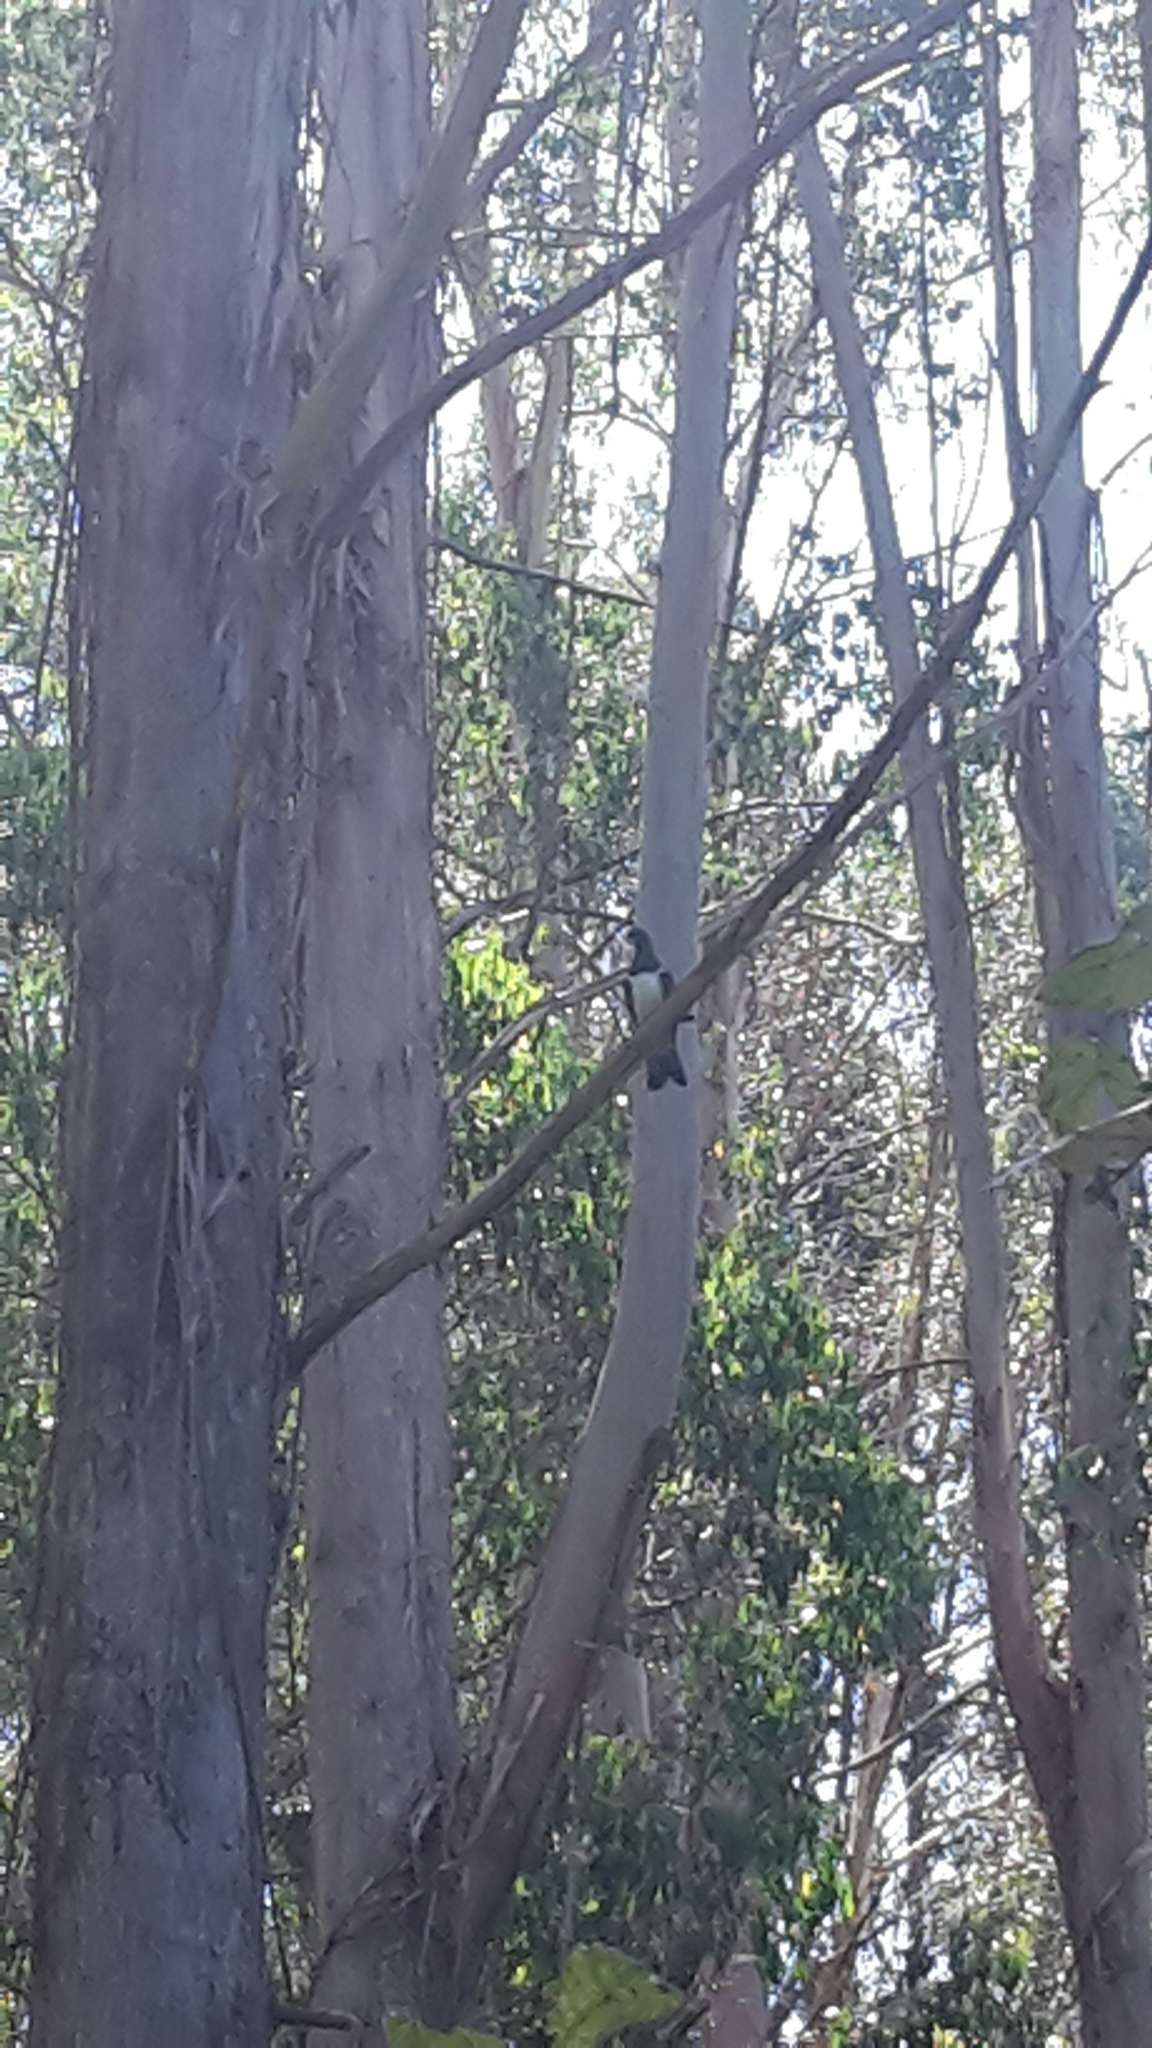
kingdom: Animalia
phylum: Chordata
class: Aves
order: Columbiformes
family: Columbidae
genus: Hemiphaga
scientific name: Hemiphaga novaeseelandiae
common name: New zealand pigeon
